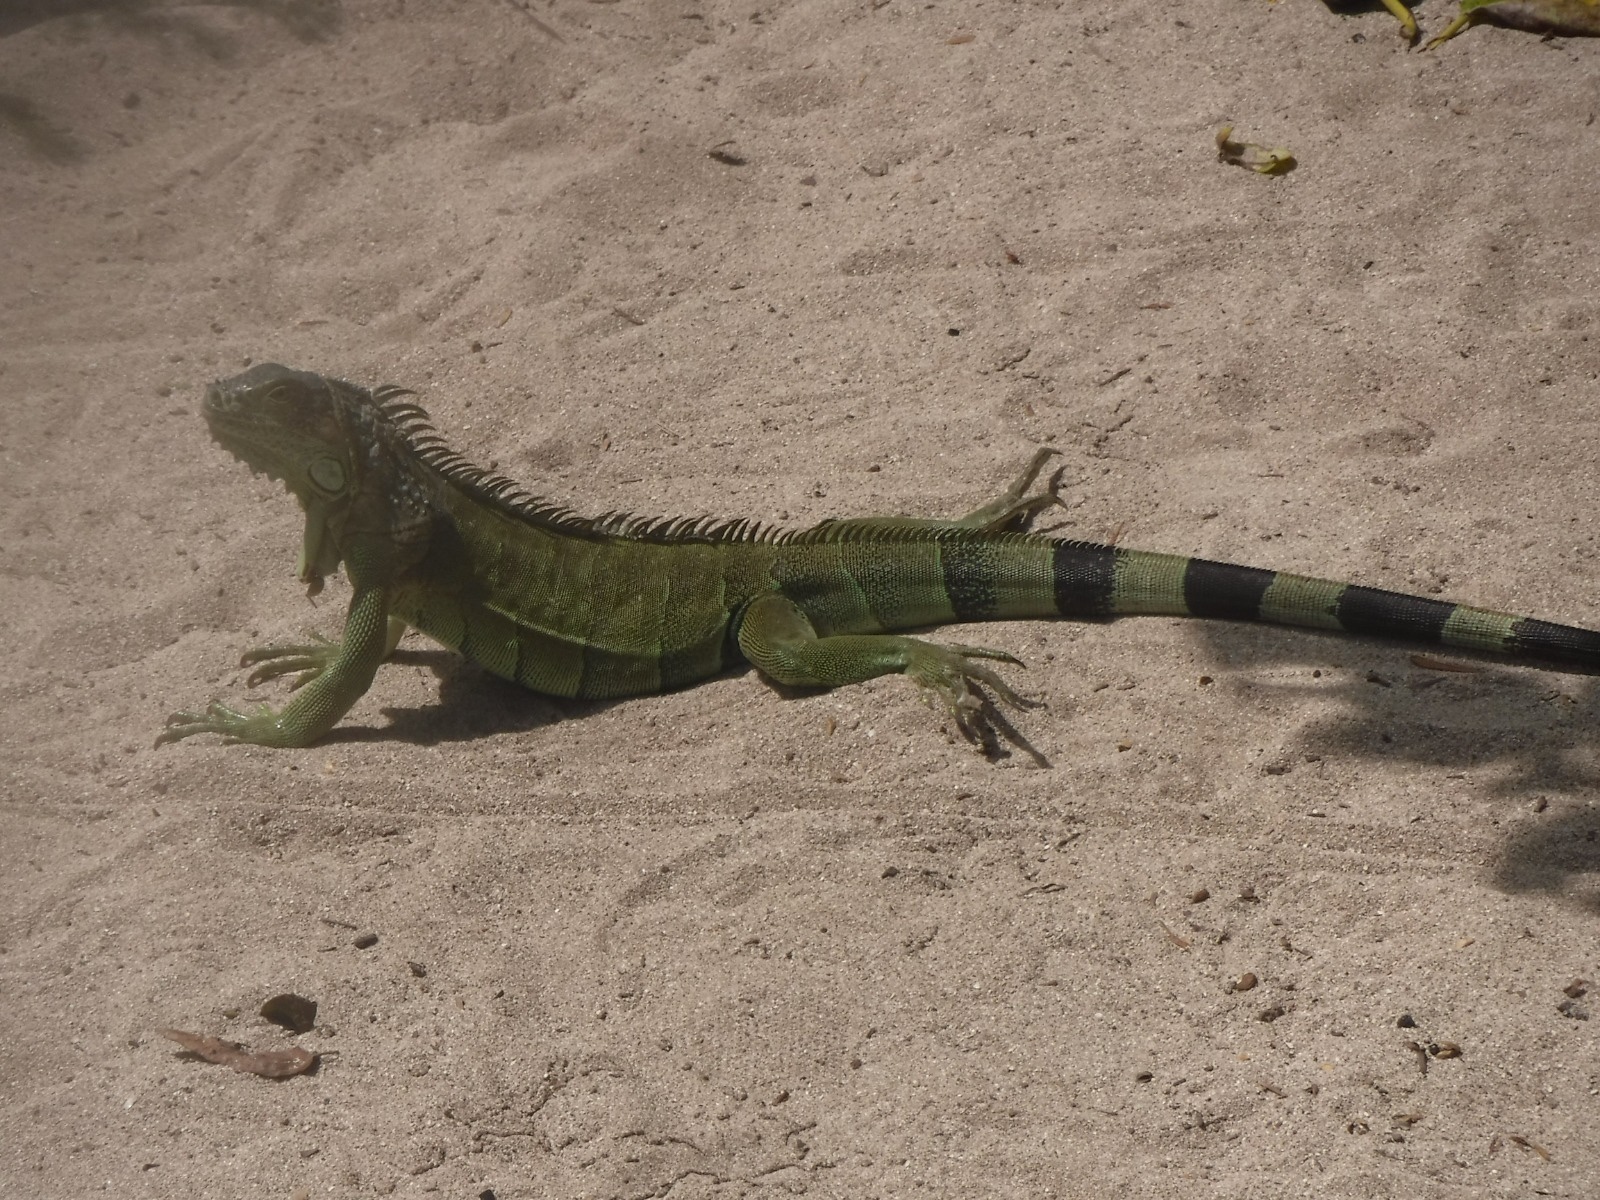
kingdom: Animalia
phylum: Chordata
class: Squamata
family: Iguanidae
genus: Iguana
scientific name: Iguana iguana
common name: Green iguana
